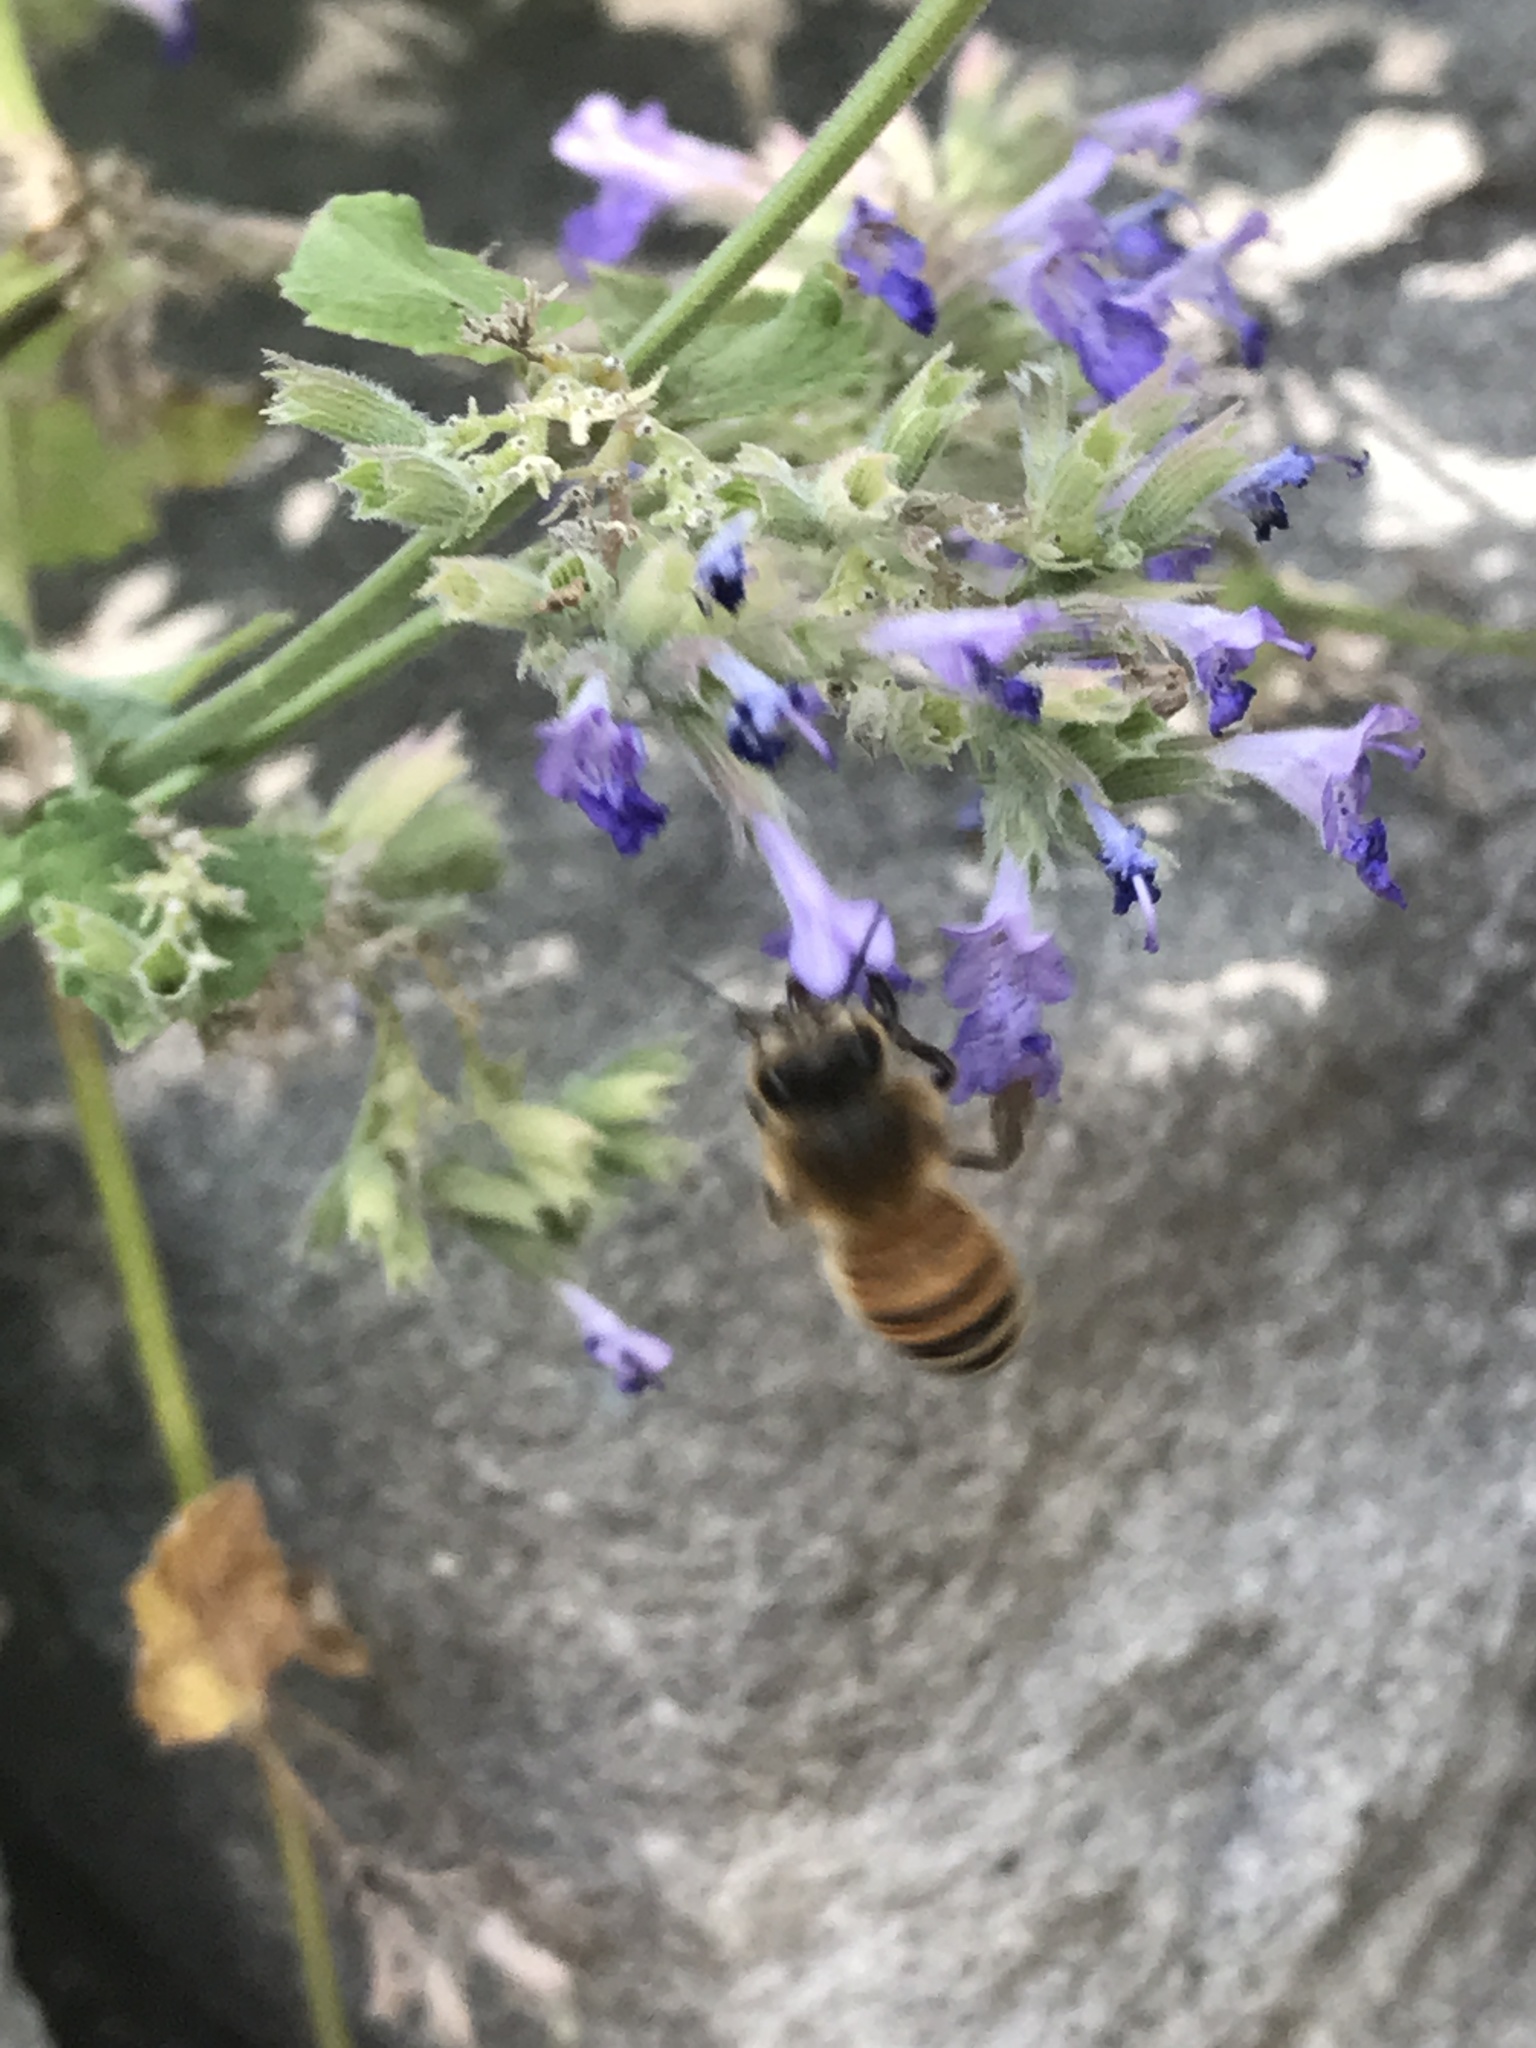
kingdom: Animalia
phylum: Arthropoda
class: Insecta
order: Hymenoptera
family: Apidae
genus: Apis
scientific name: Apis mellifera
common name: Honey bee
